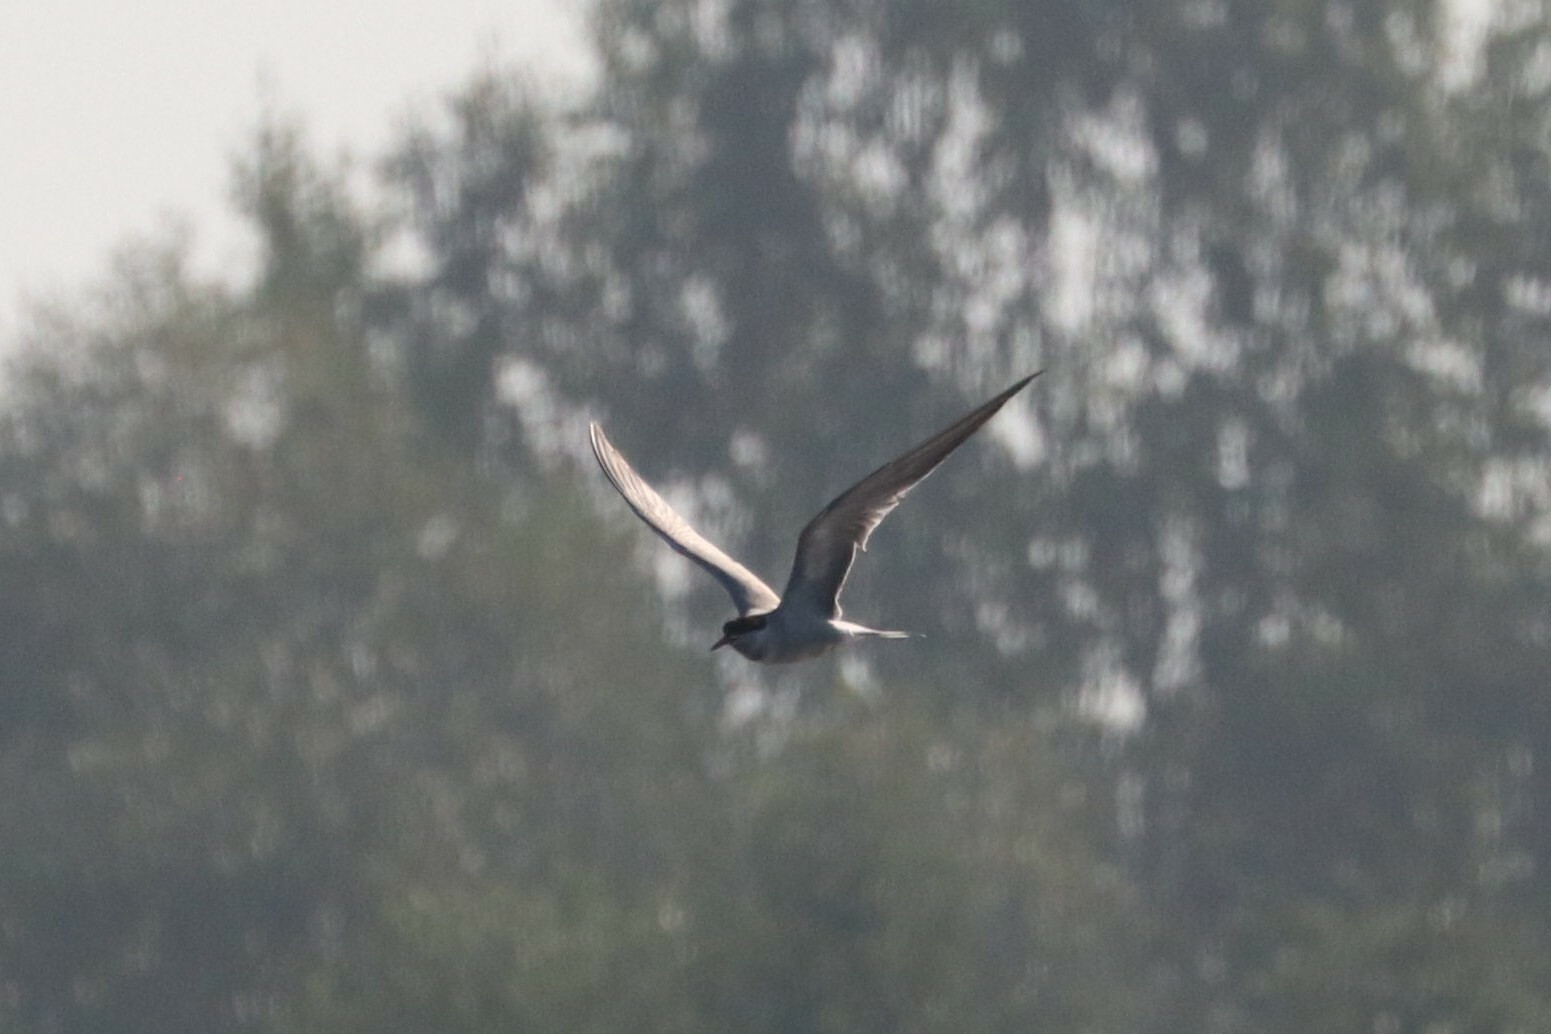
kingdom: Animalia
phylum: Chordata
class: Aves
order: Charadriiformes
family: Laridae
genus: Sterna
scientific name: Sterna hirundo
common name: Common tern
